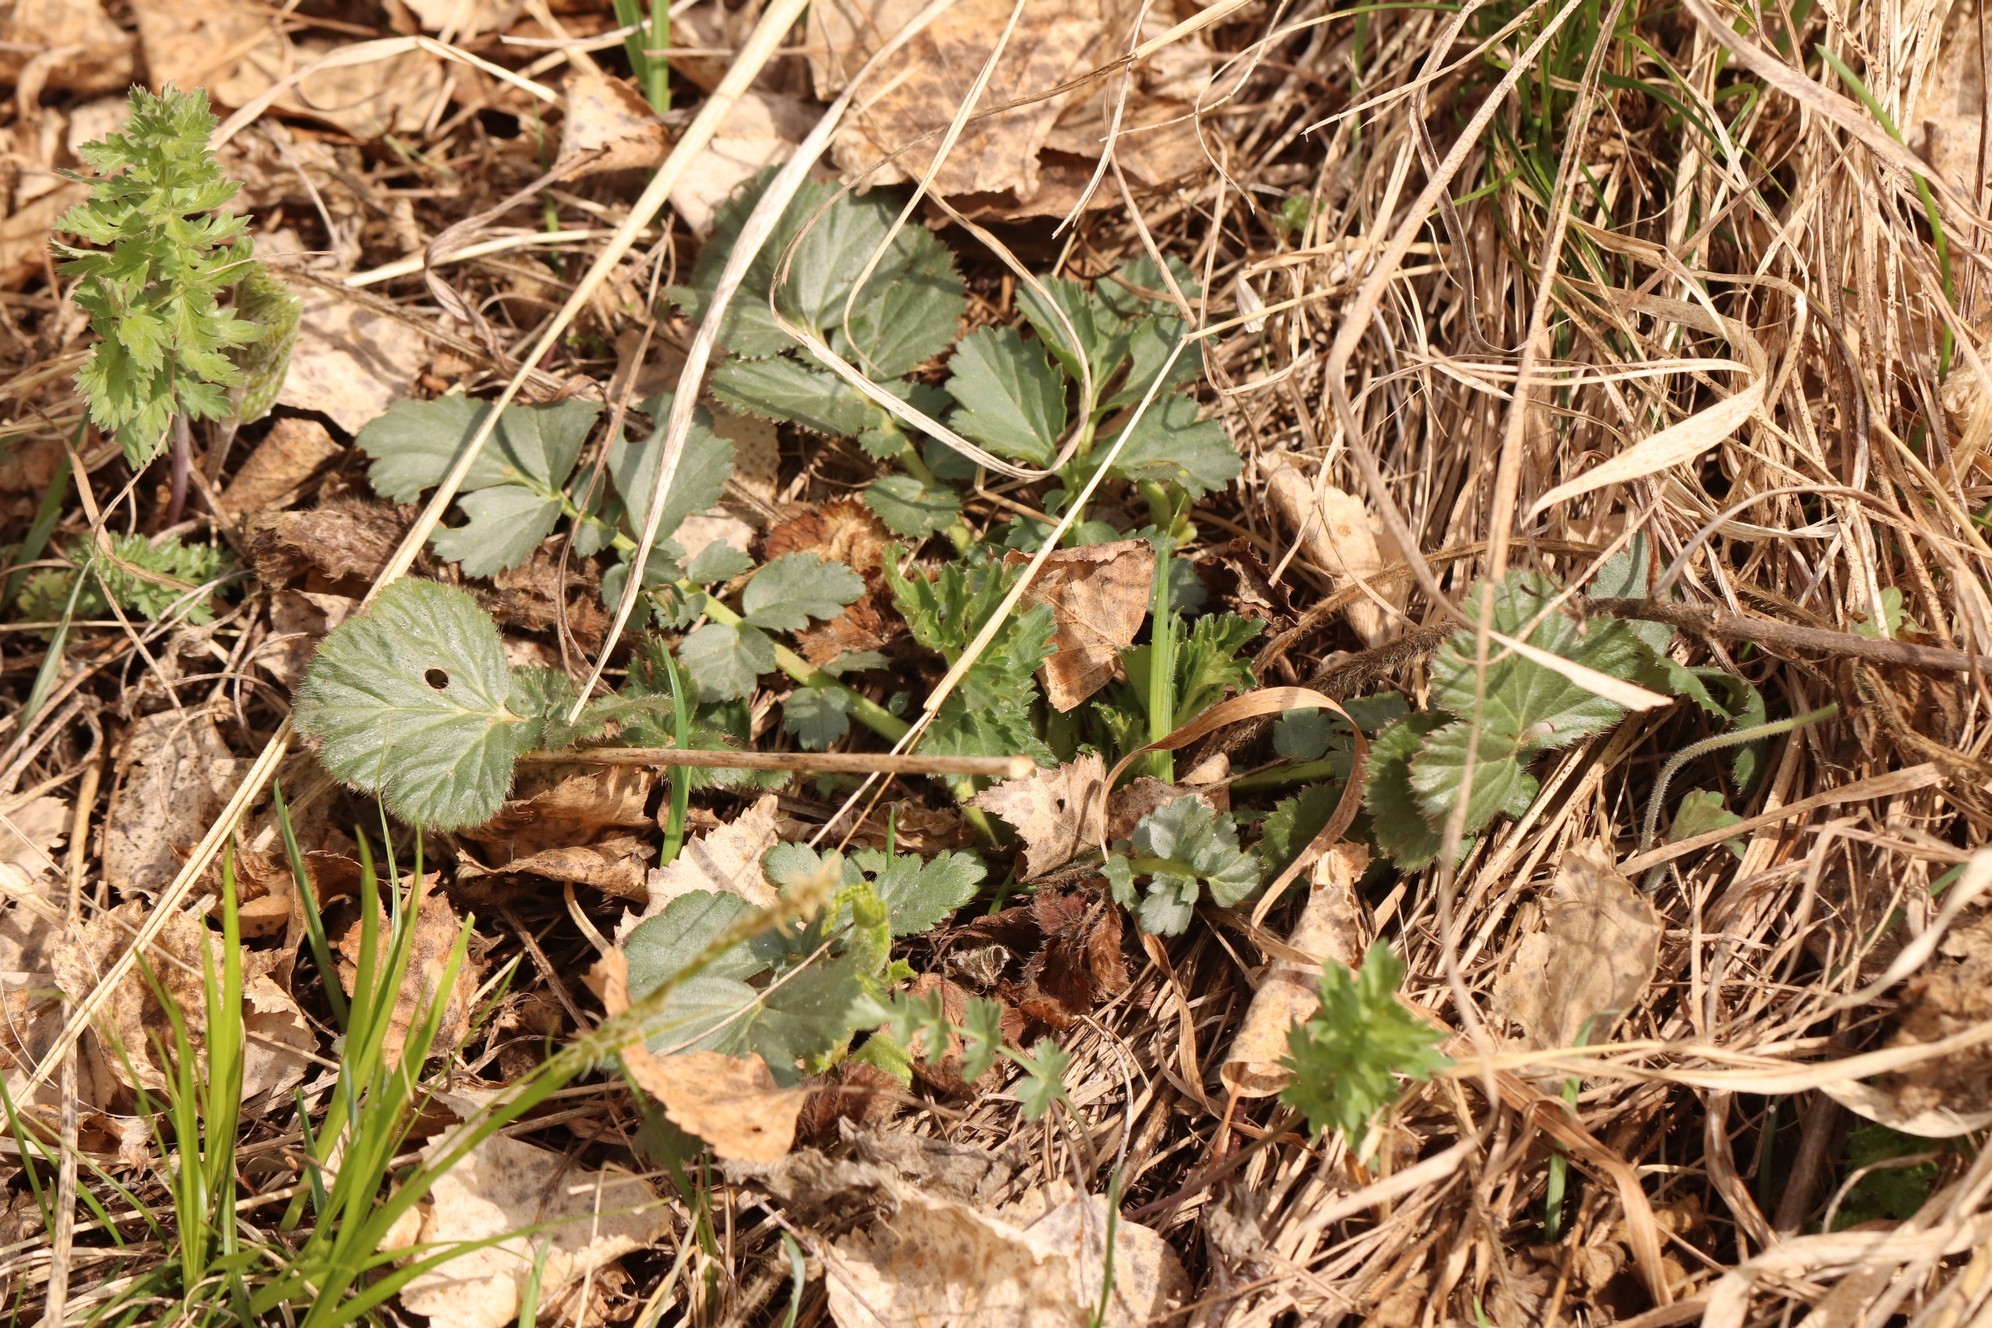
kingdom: Plantae
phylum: Tracheophyta
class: Magnoliopsida
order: Rosales
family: Rosaceae
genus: Geum
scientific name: Geum aleppicum
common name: Yellow avens
